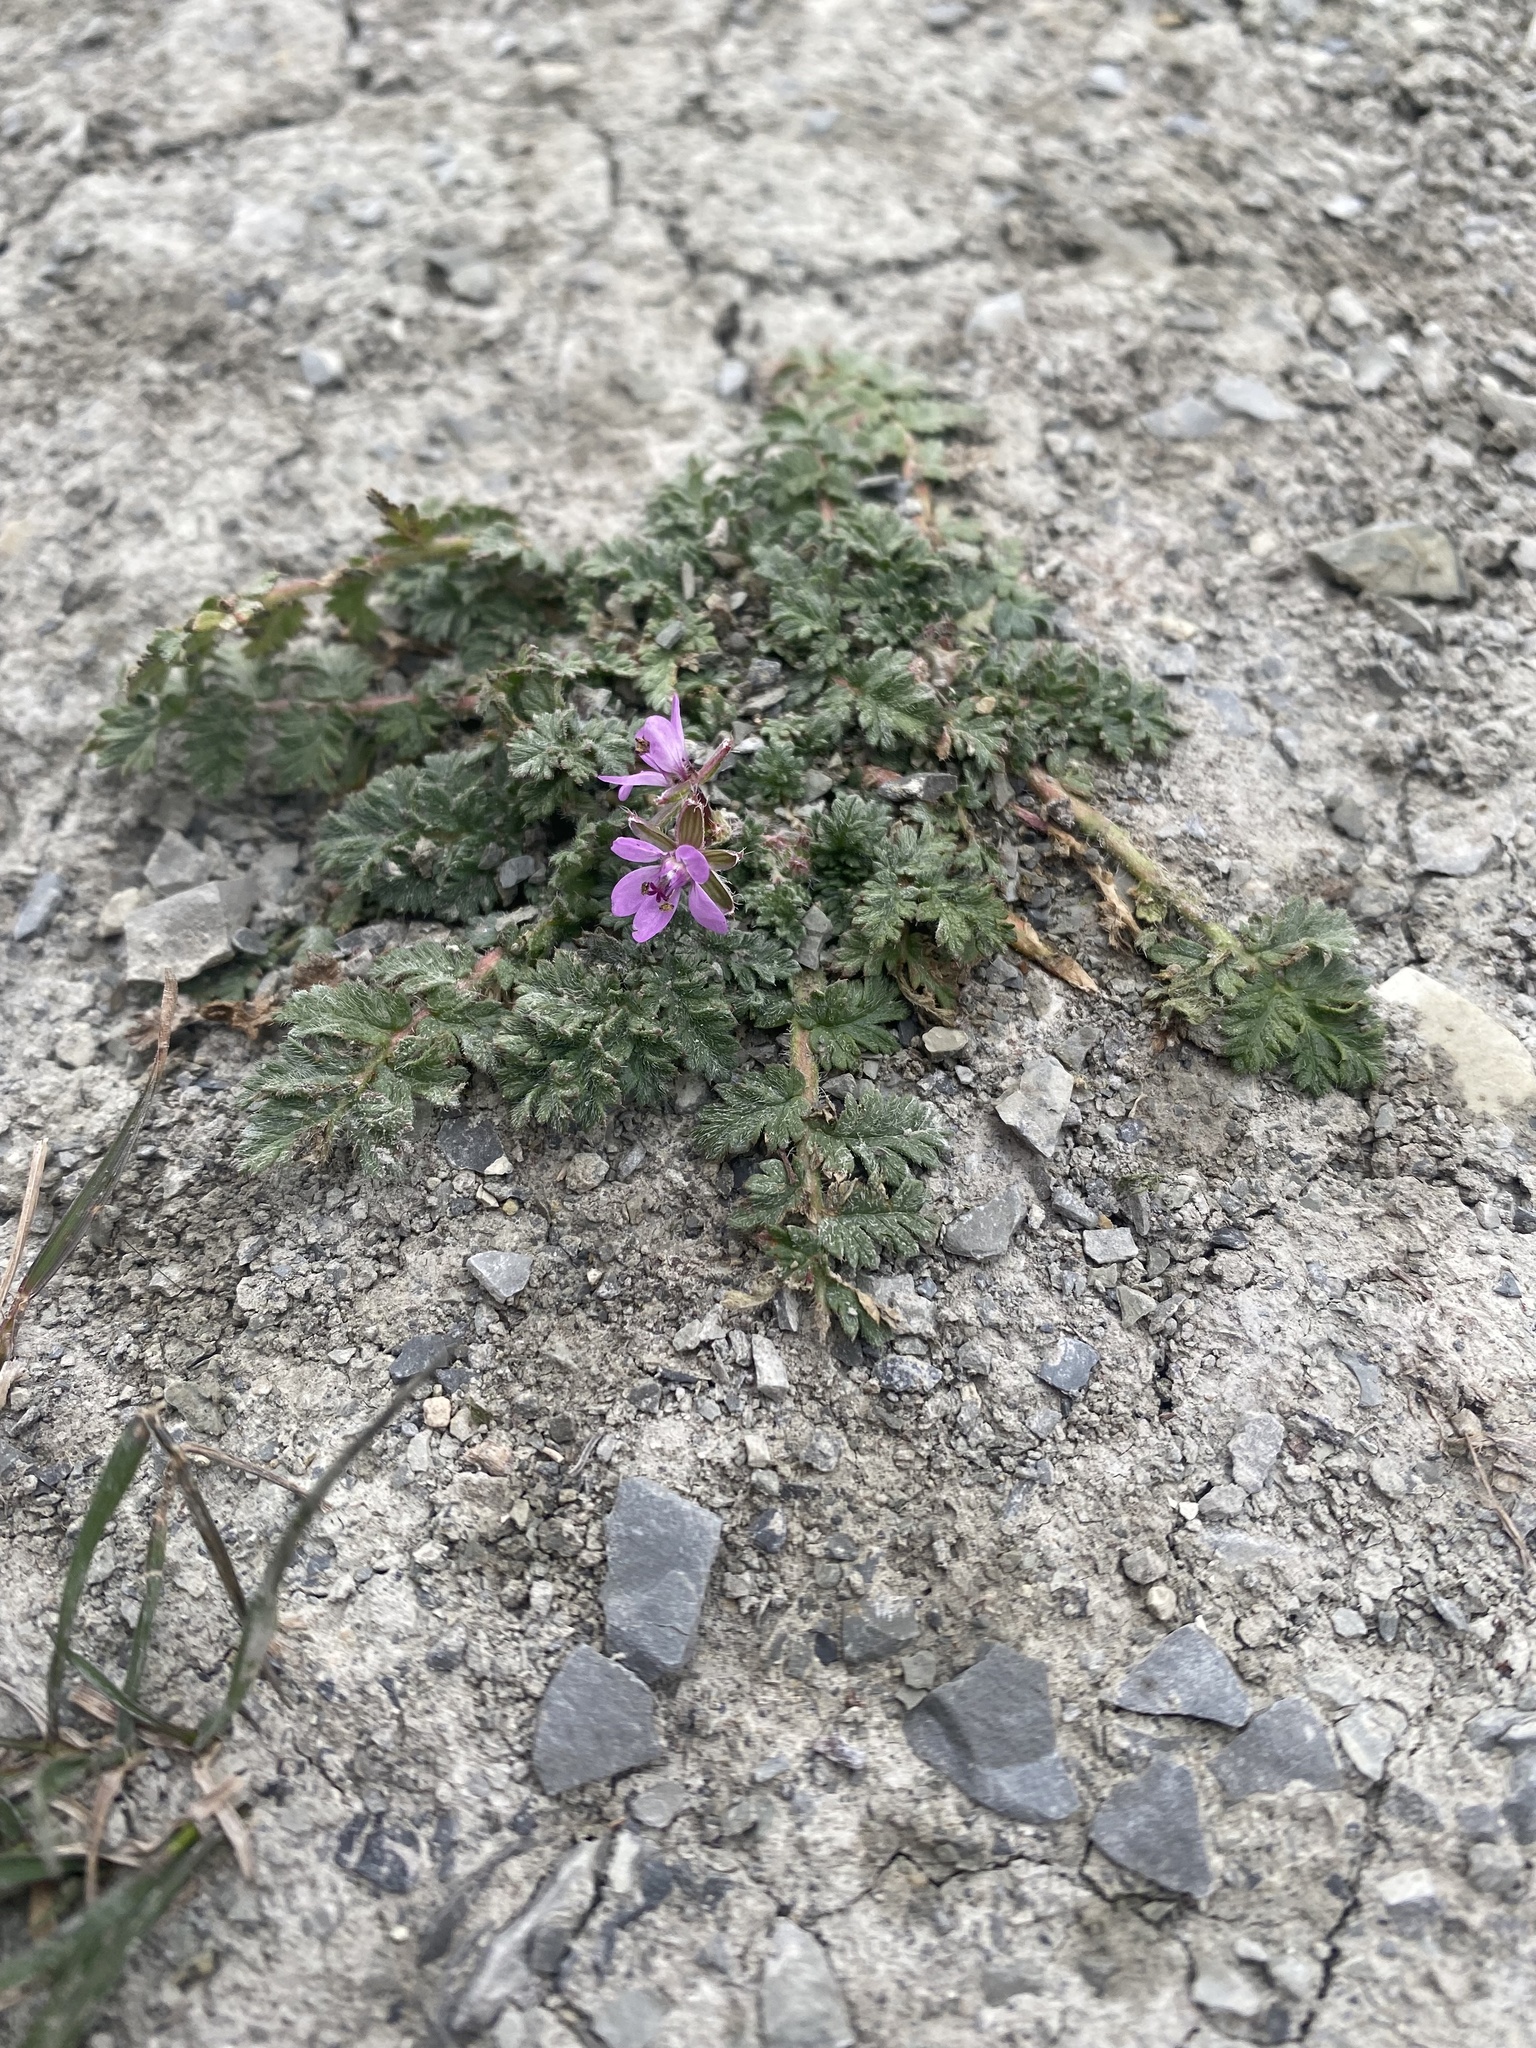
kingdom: Plantae
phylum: Tracheophyta
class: Magnoliopsida
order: Geraniales
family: Geraniaceae
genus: Erodium
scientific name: Erodium cicutarium
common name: Common stork's-bill
